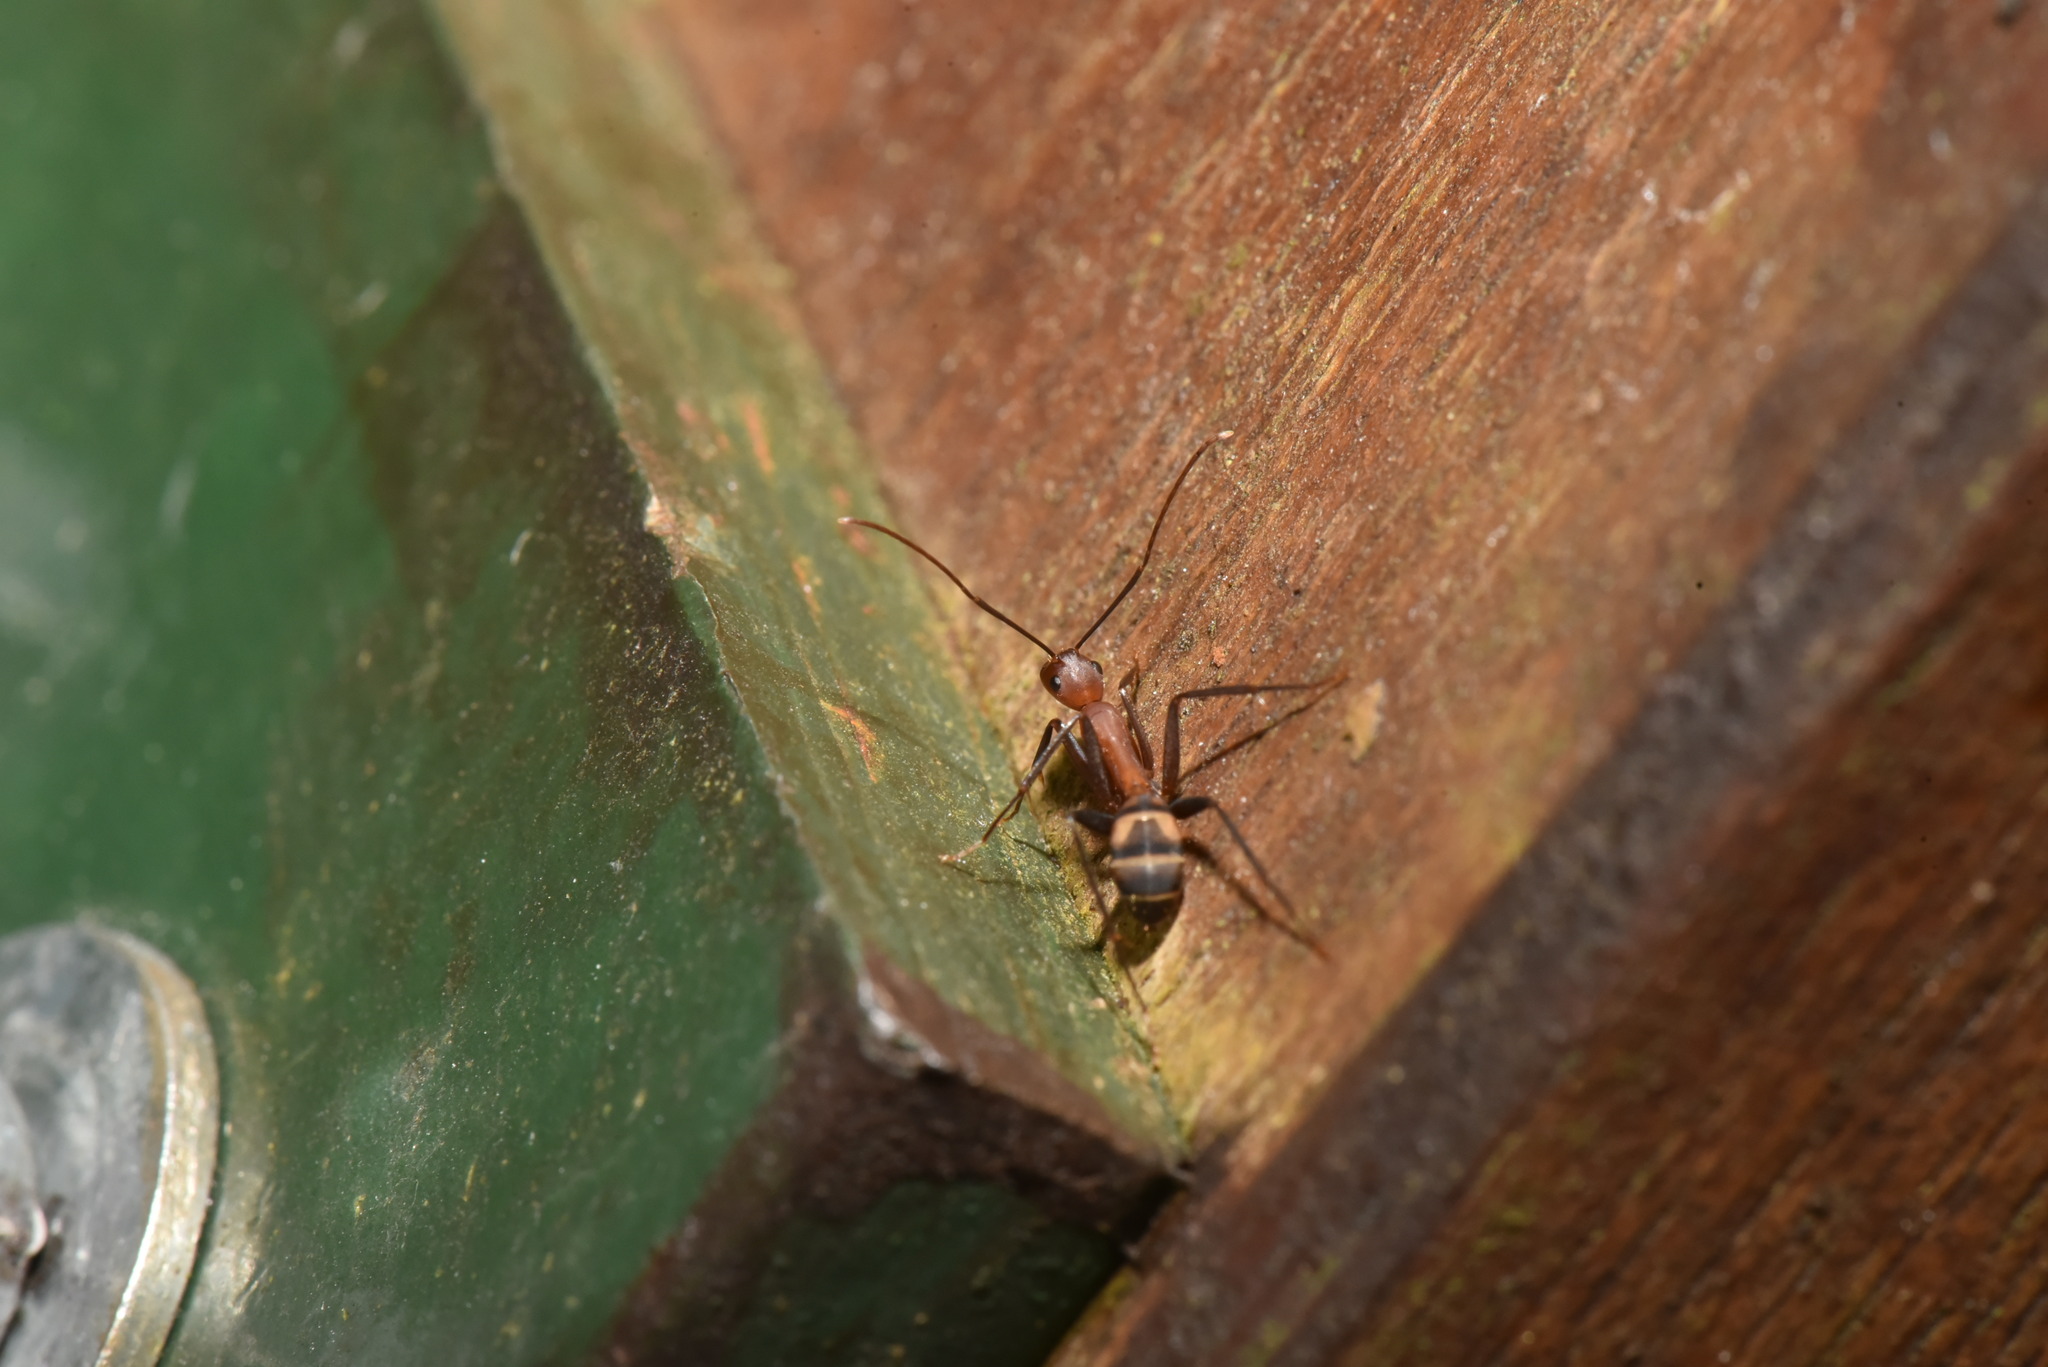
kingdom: Animalia
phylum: Arthropoda
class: Insecta
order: Hymenoptera
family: Formicidae
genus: Camponotus
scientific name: Camponotus habereri
